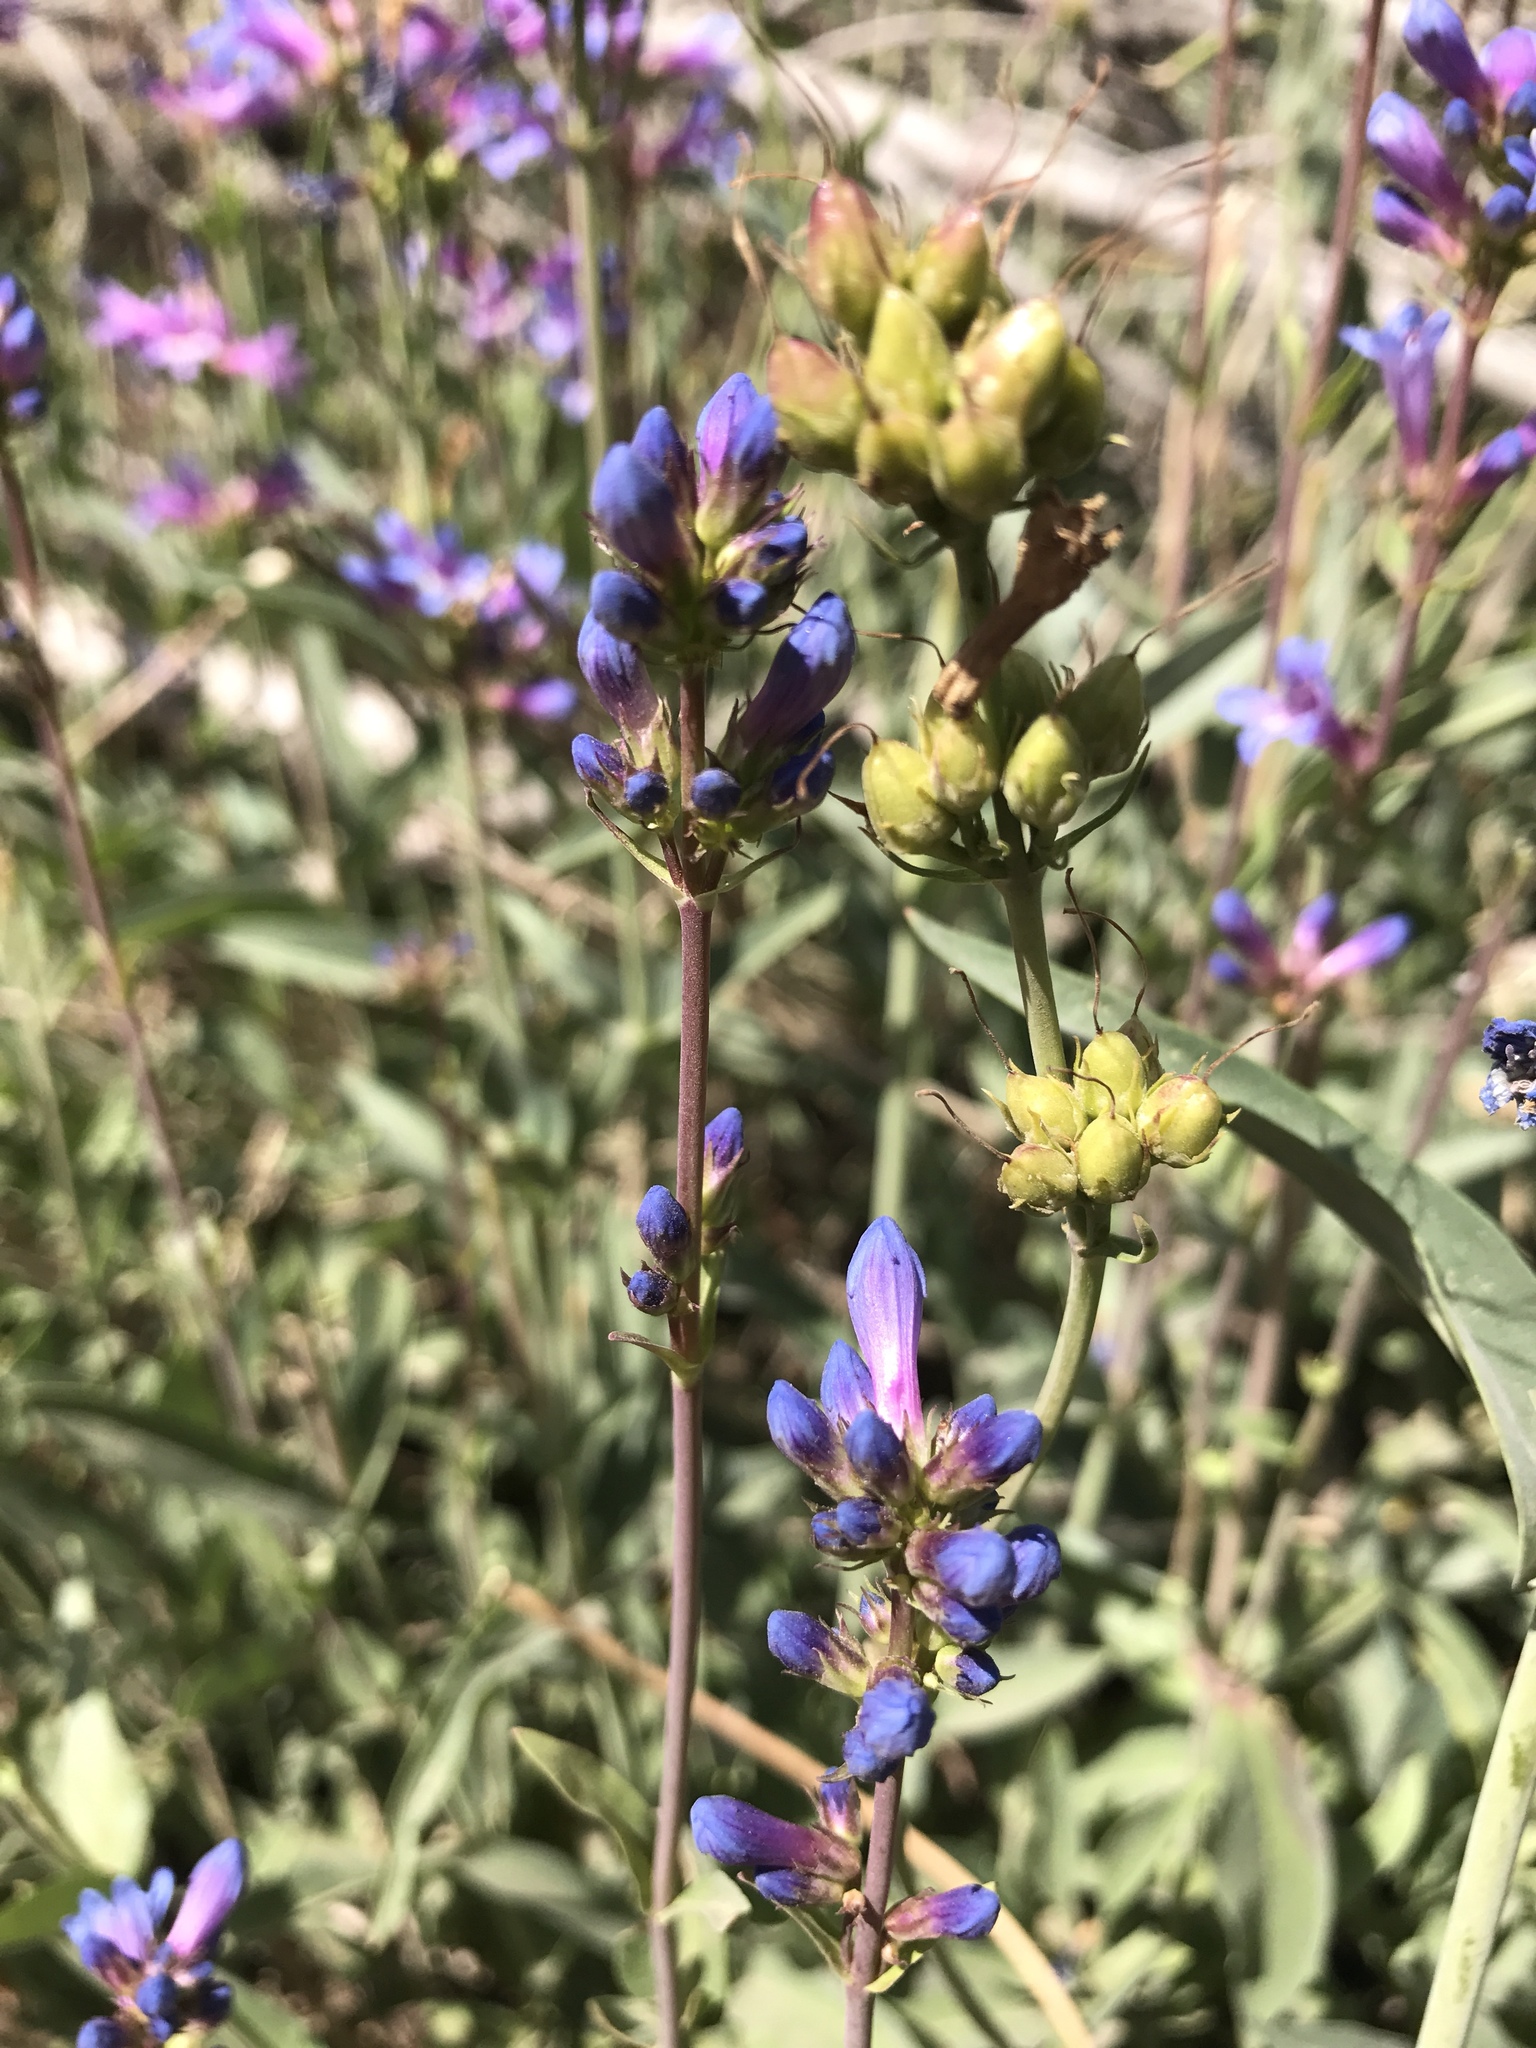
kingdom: Plantae
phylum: Tracheophyta
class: Magnoliopsida
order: Lamiales
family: Plantaginaceae
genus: Penstemon
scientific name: Penstemon euglaucus
